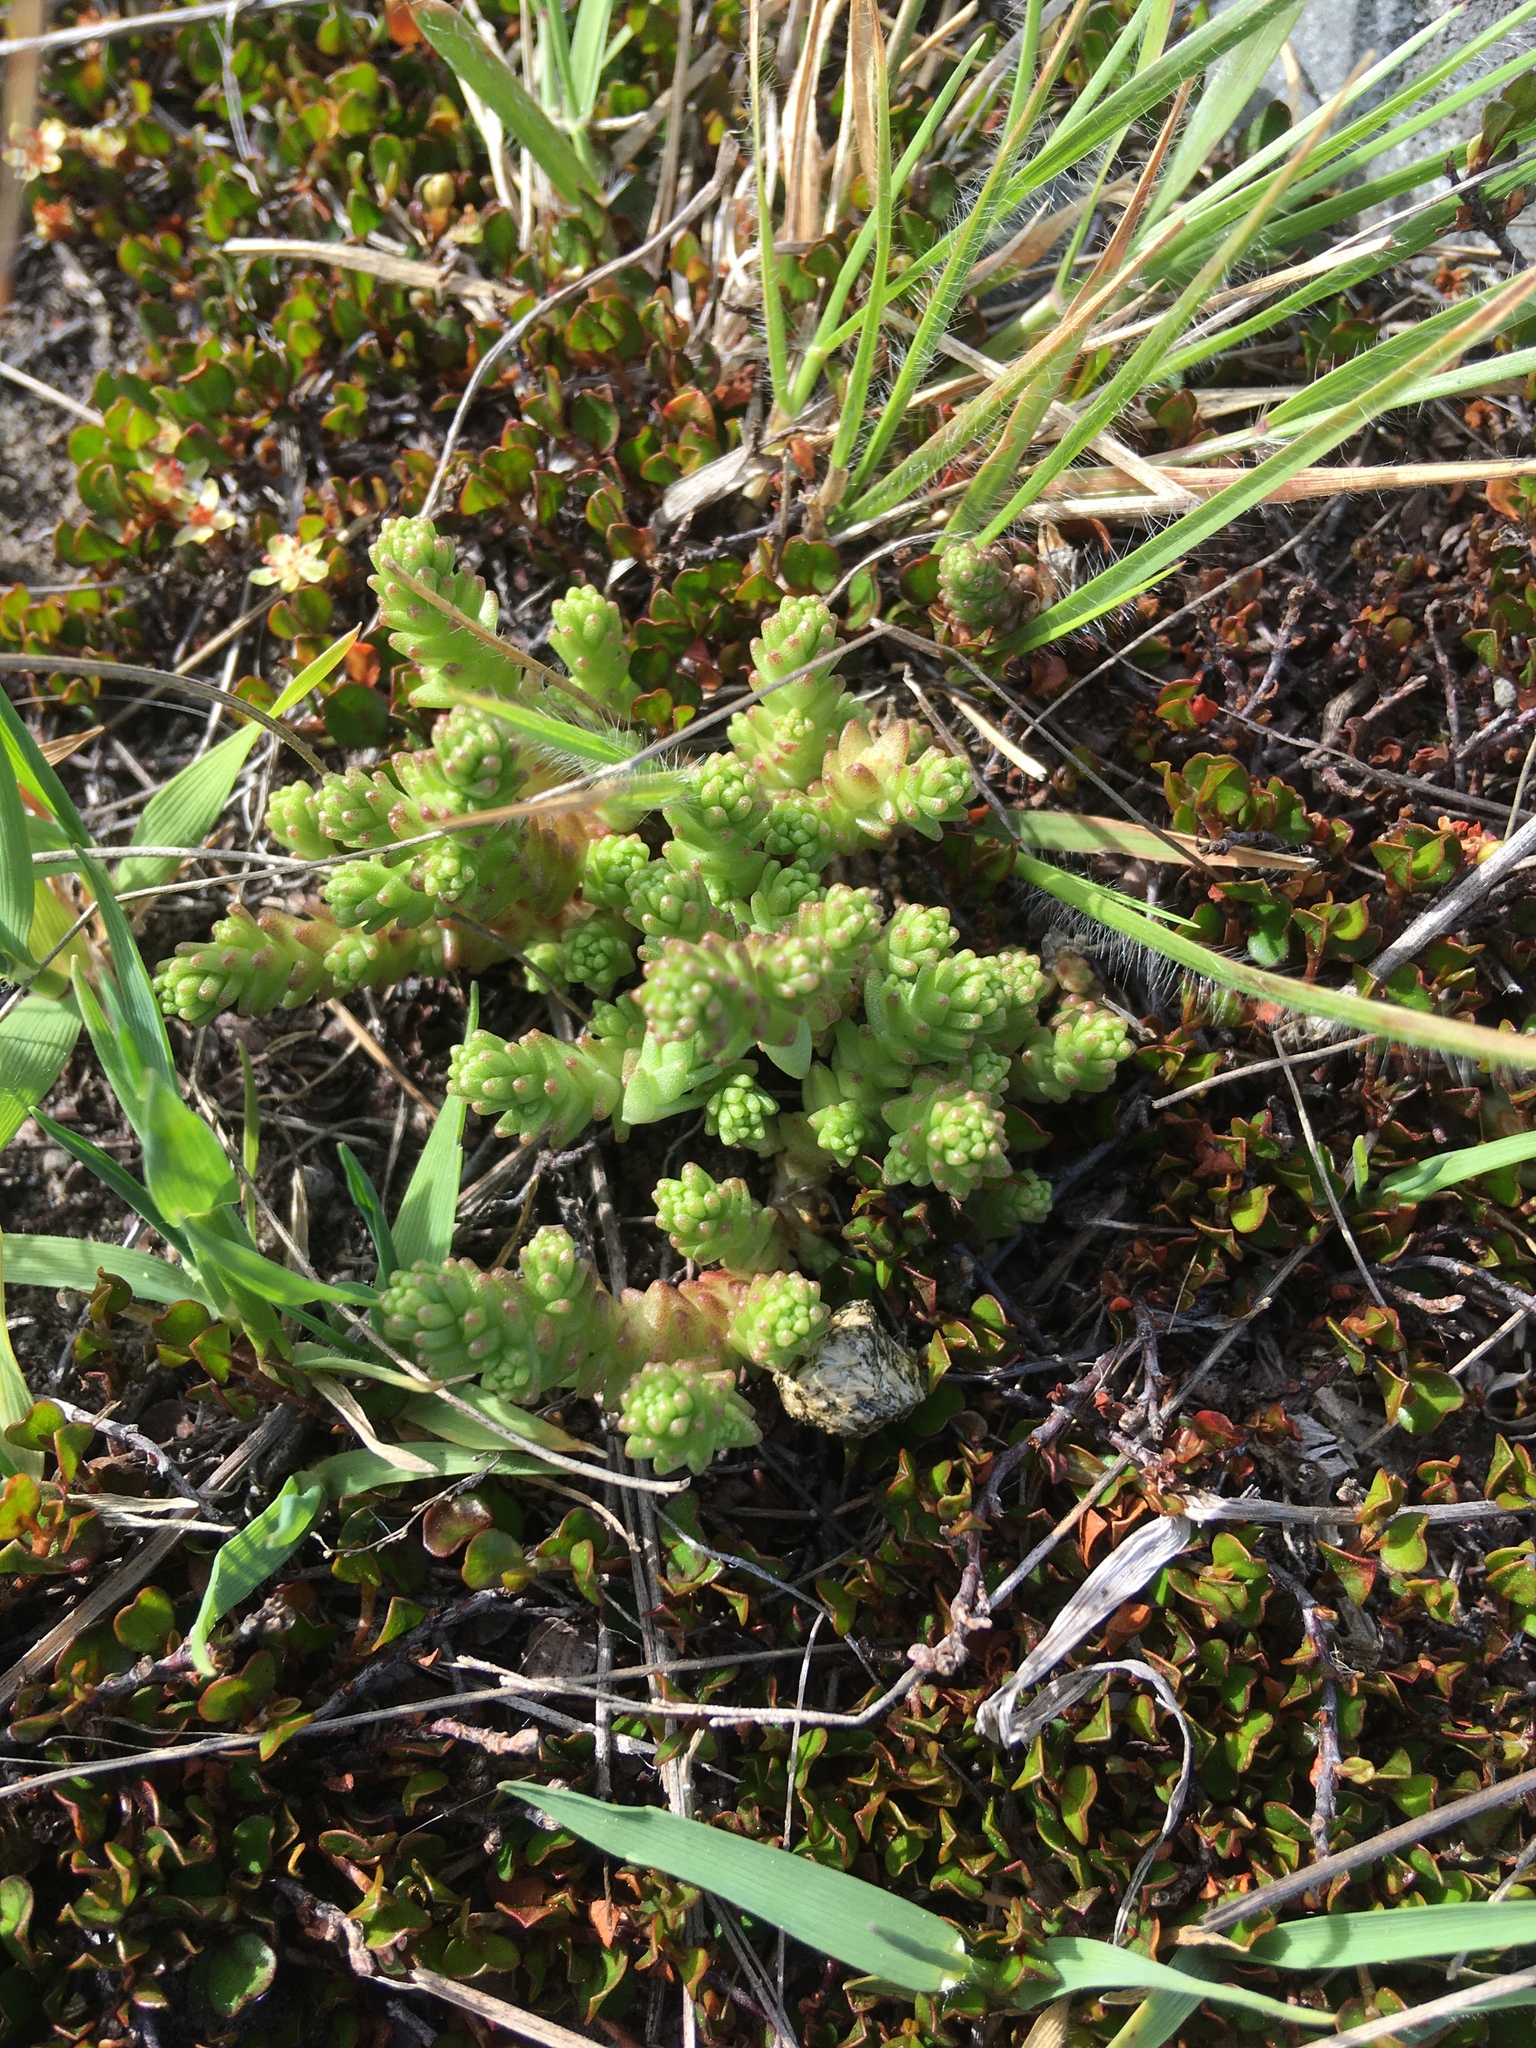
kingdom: Plantae
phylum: Tracheophyta
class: Magnoliopsida
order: Saxifragales
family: Crassulaceae
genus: Sedum
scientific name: Sedum acre
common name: Biting stonecrop
